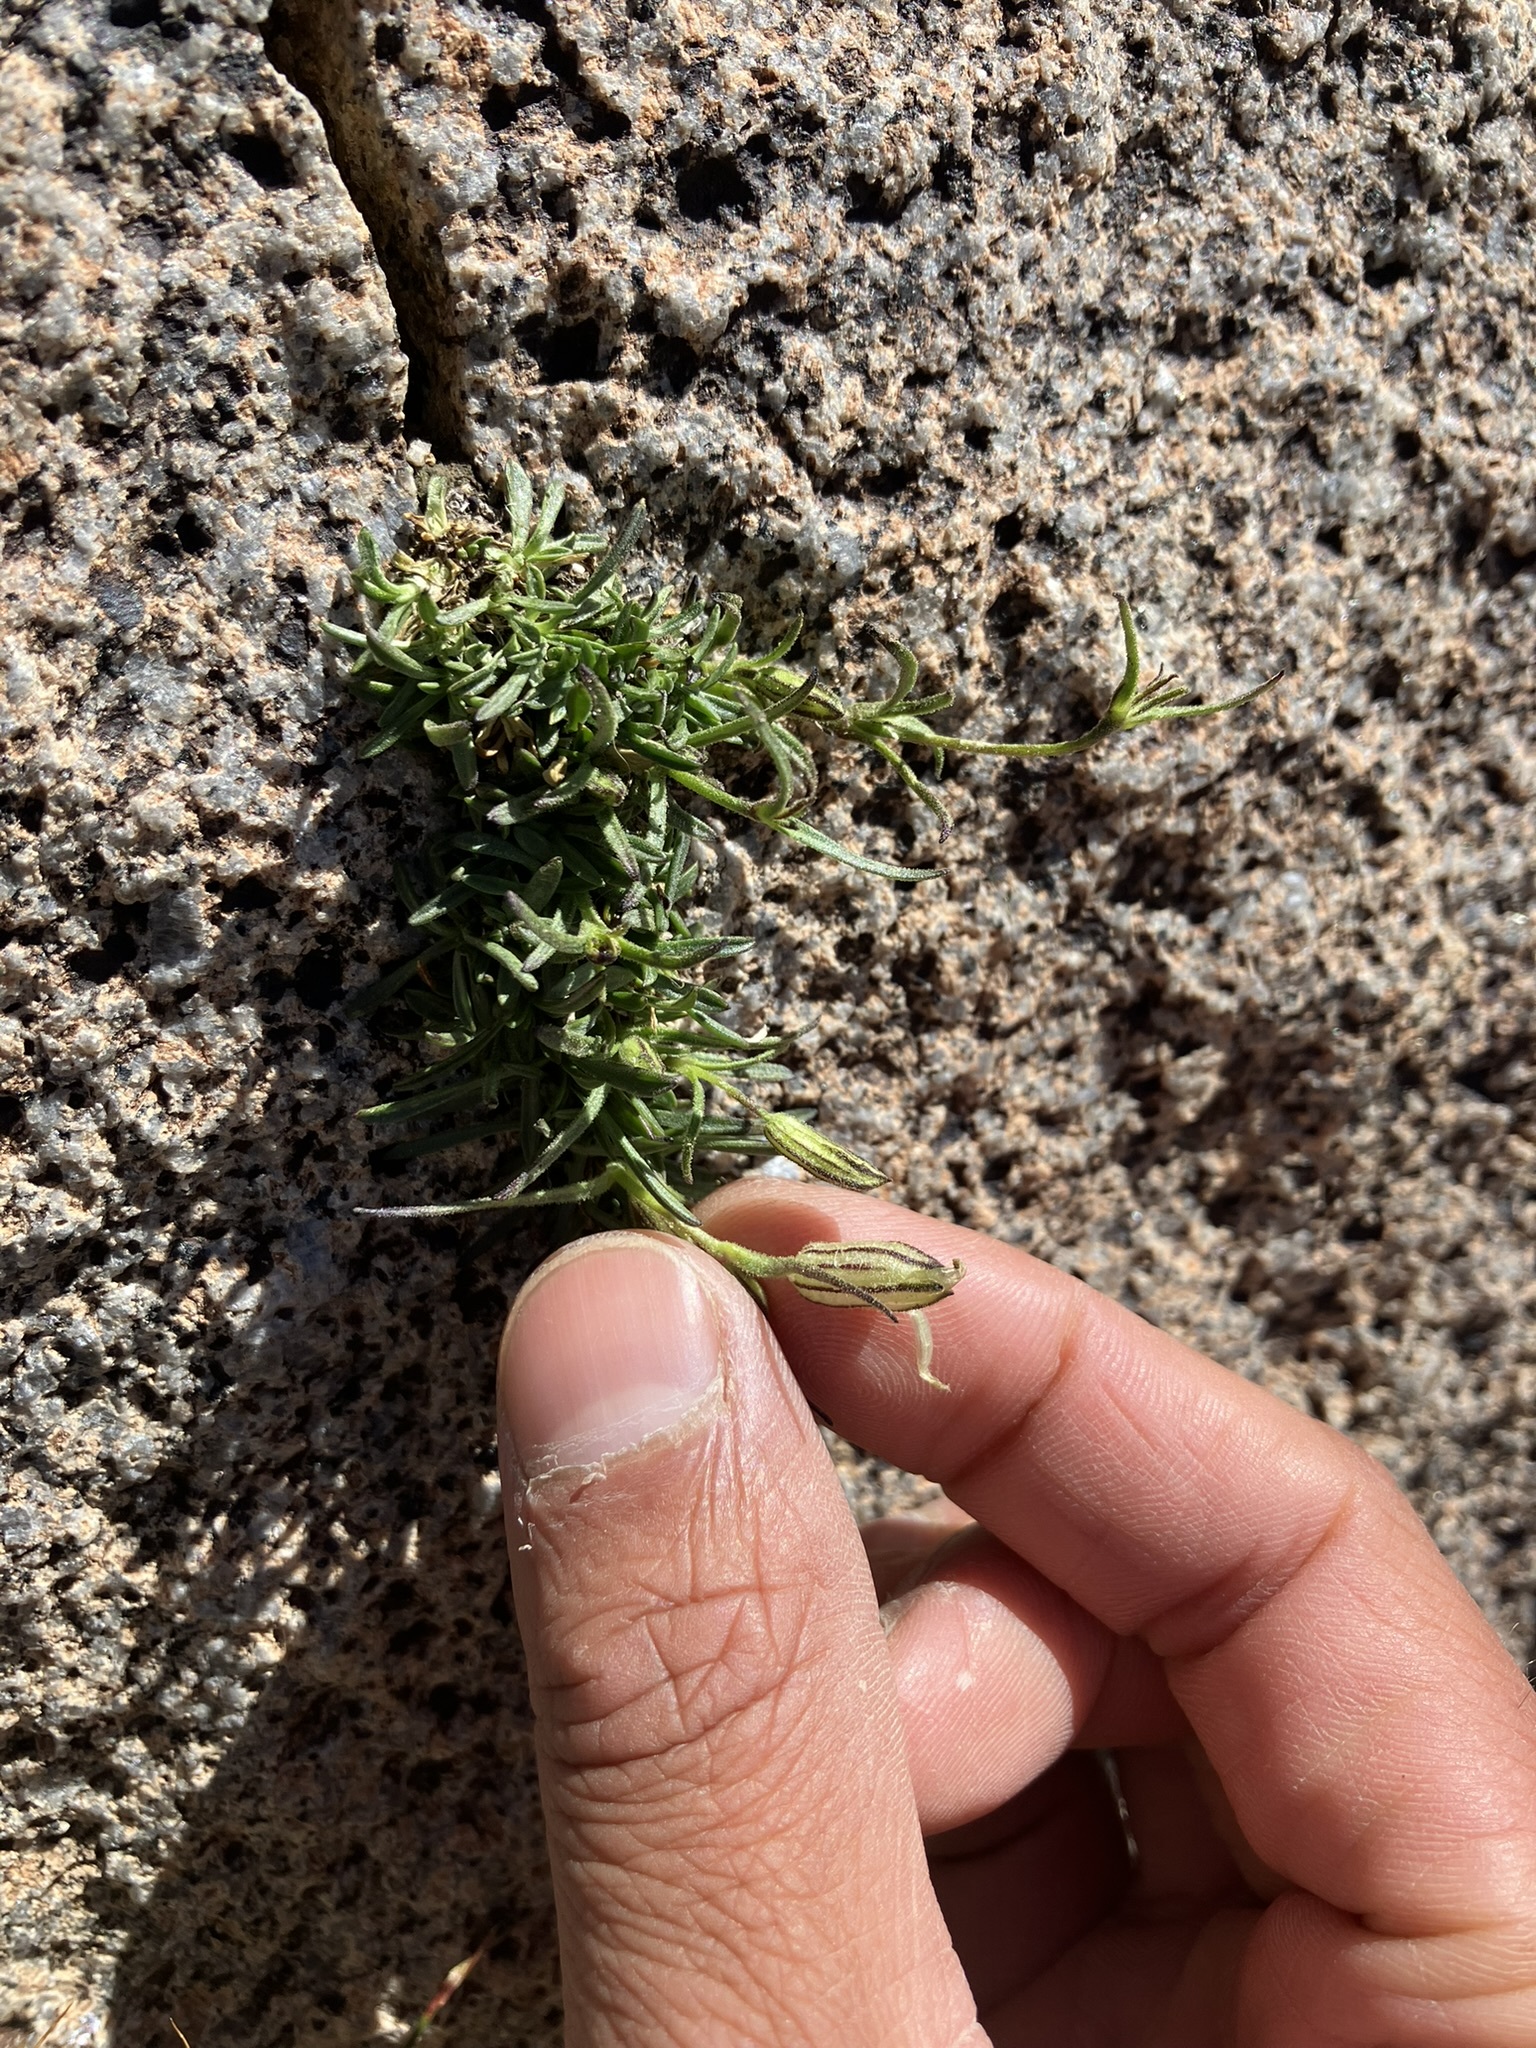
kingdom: Plantae
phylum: Tracheophyta
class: Magnoliopsida
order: Caryophyllales
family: Caryophyllaceae
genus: Silene
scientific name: Silene sargentii
